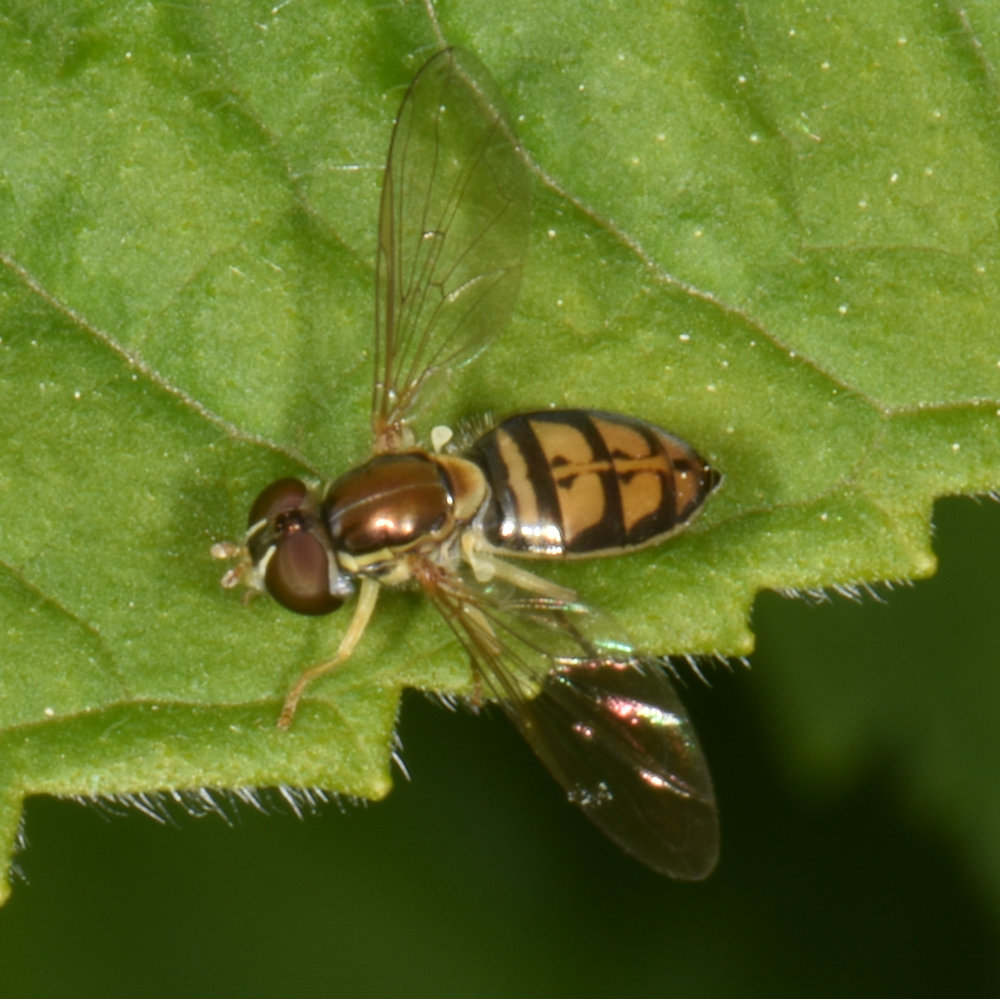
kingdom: Animalia
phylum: Arthropoda
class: Insecta
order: Diptera
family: Syrphidae
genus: Toxomerus
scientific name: Toxomerus marginatus
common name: Syrphid fly
